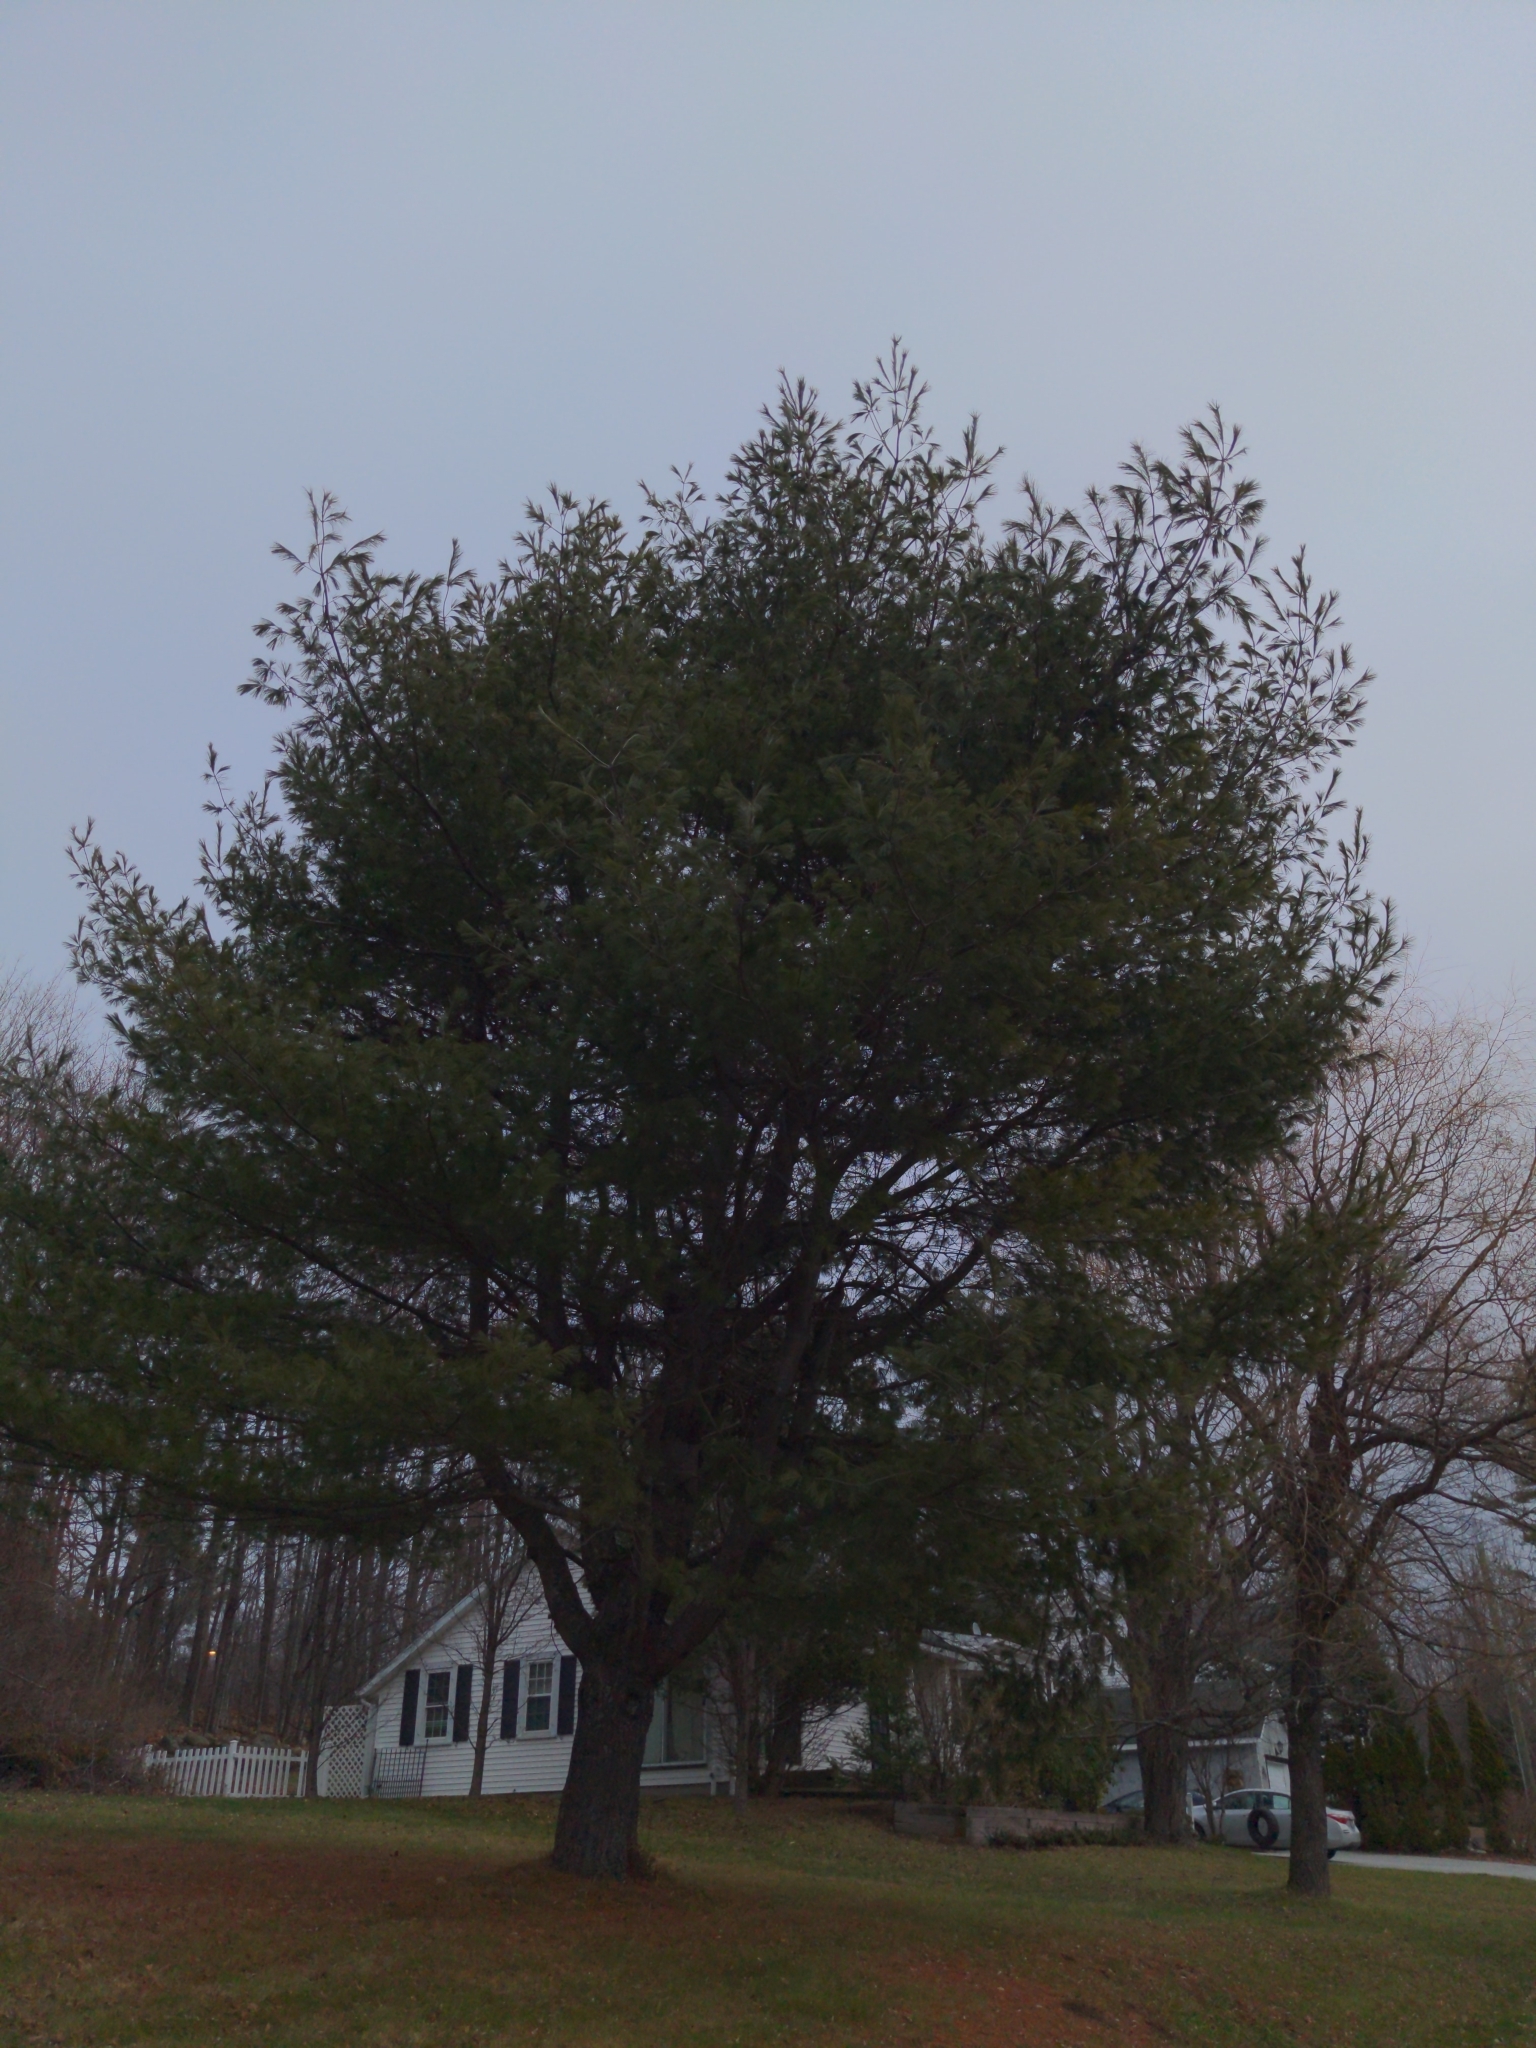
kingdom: Plantae
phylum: Tracheophyta
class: Pinopsida
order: Pinales
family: Pinaceae
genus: Pinus
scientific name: Pinus strobus
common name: Weymouth pine
